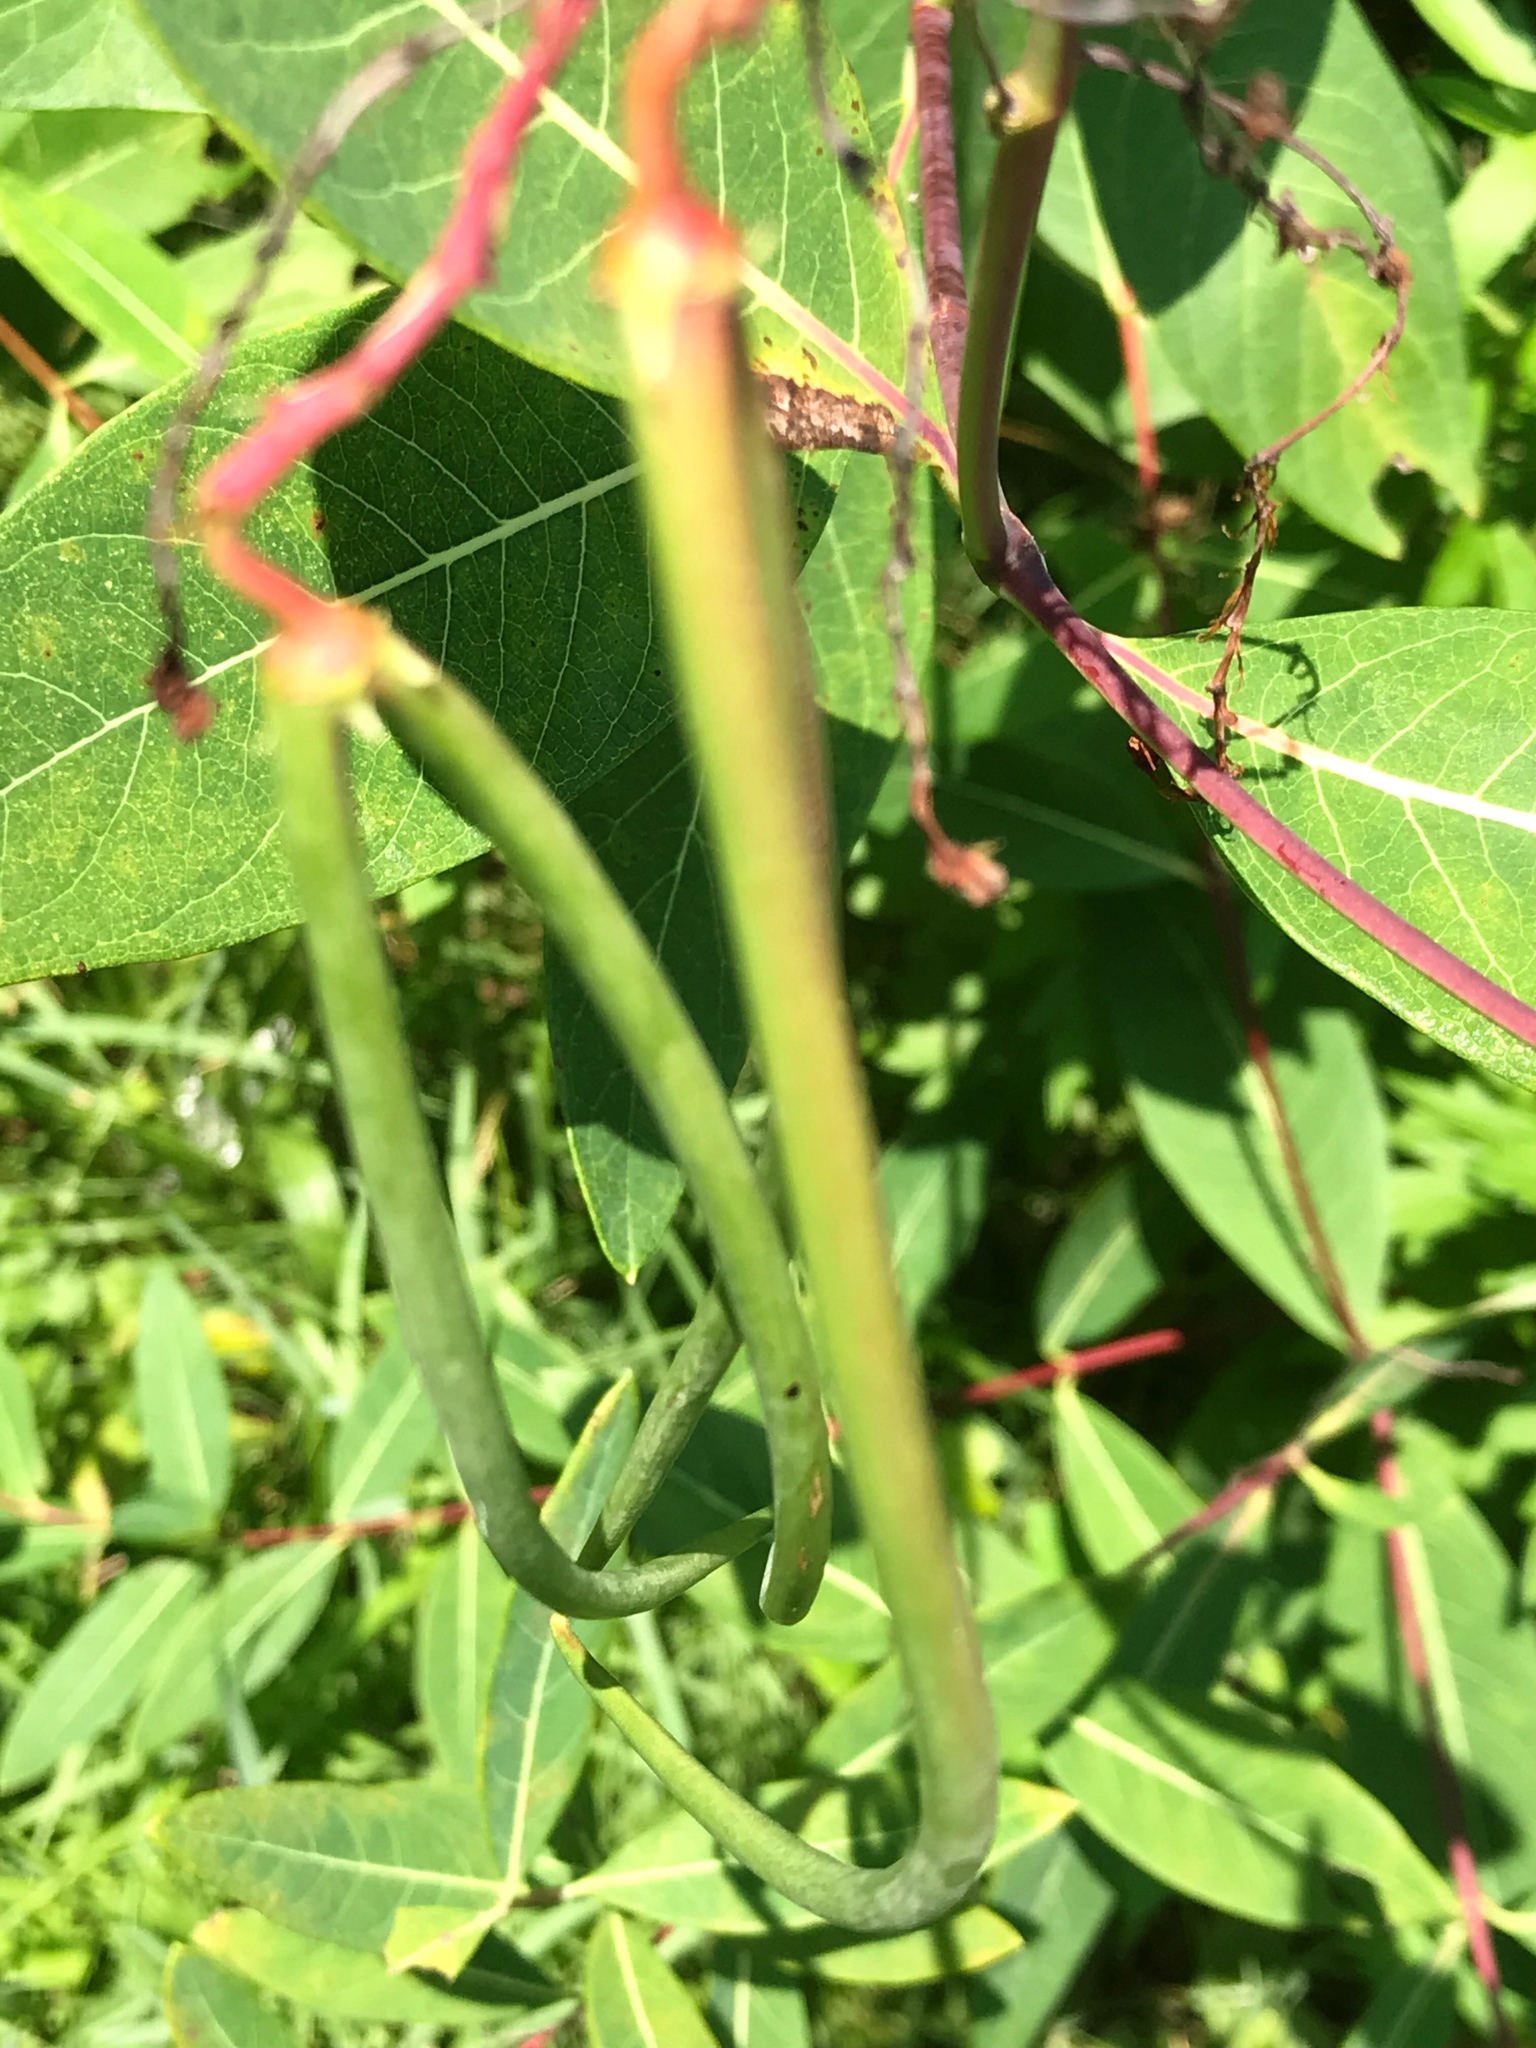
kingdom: Plantae
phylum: Tracheophyta
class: Magnoliopsida
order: Gentianales
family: Apocynaceae
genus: Apocynum
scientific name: Apocynum cannabinum
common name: Hemp dogbane
